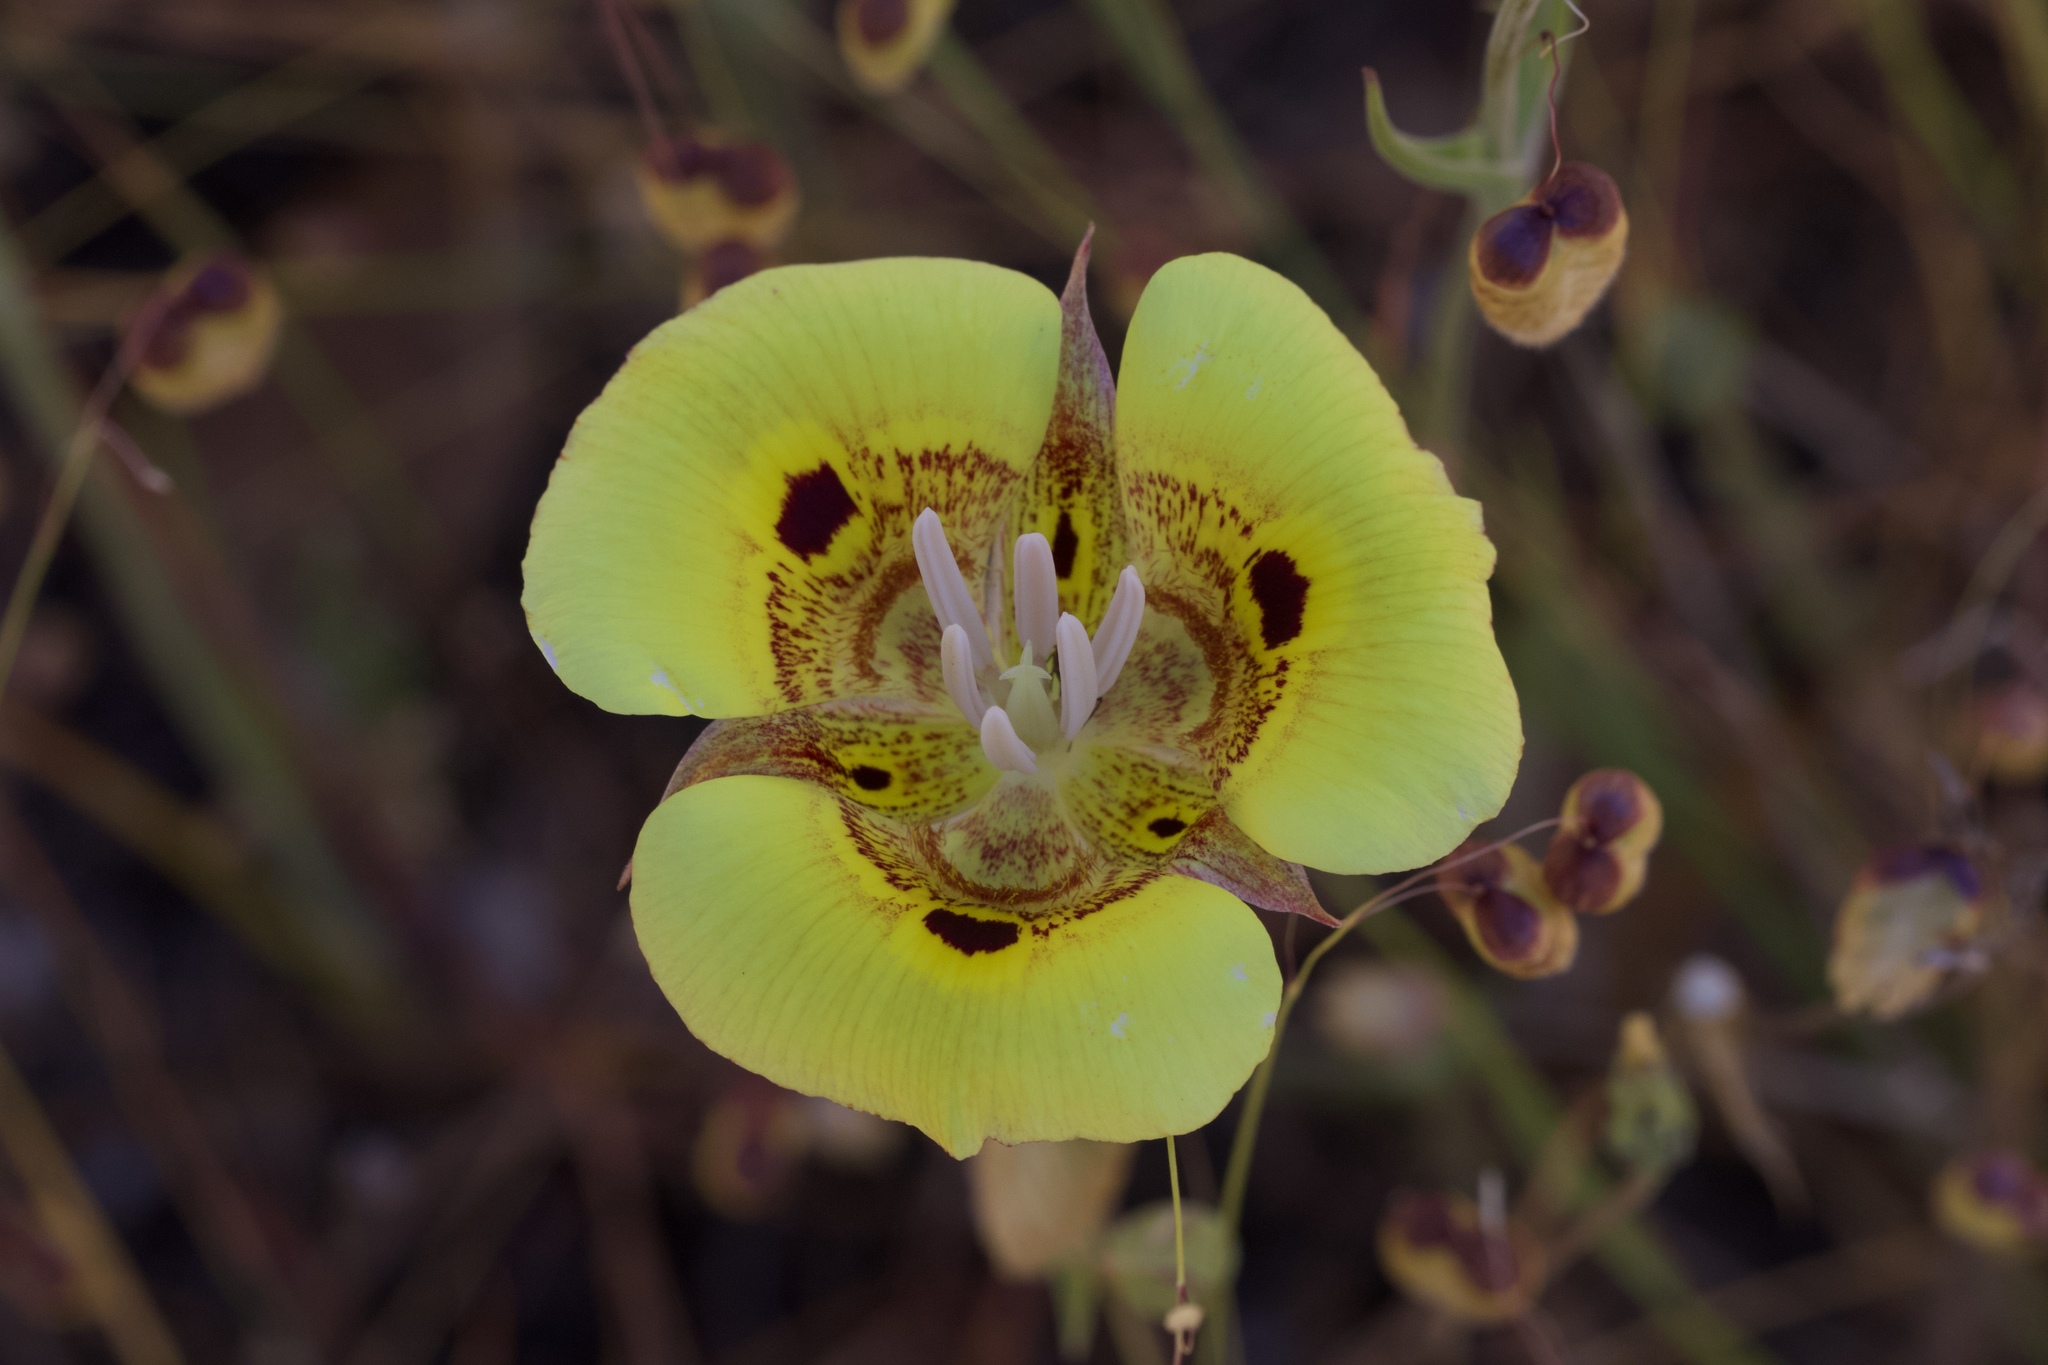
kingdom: Plantae
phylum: Tracheophyta
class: Liliopsida
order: Liliales
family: Liliaceae
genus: Calochortus
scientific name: Calochortus superbus
